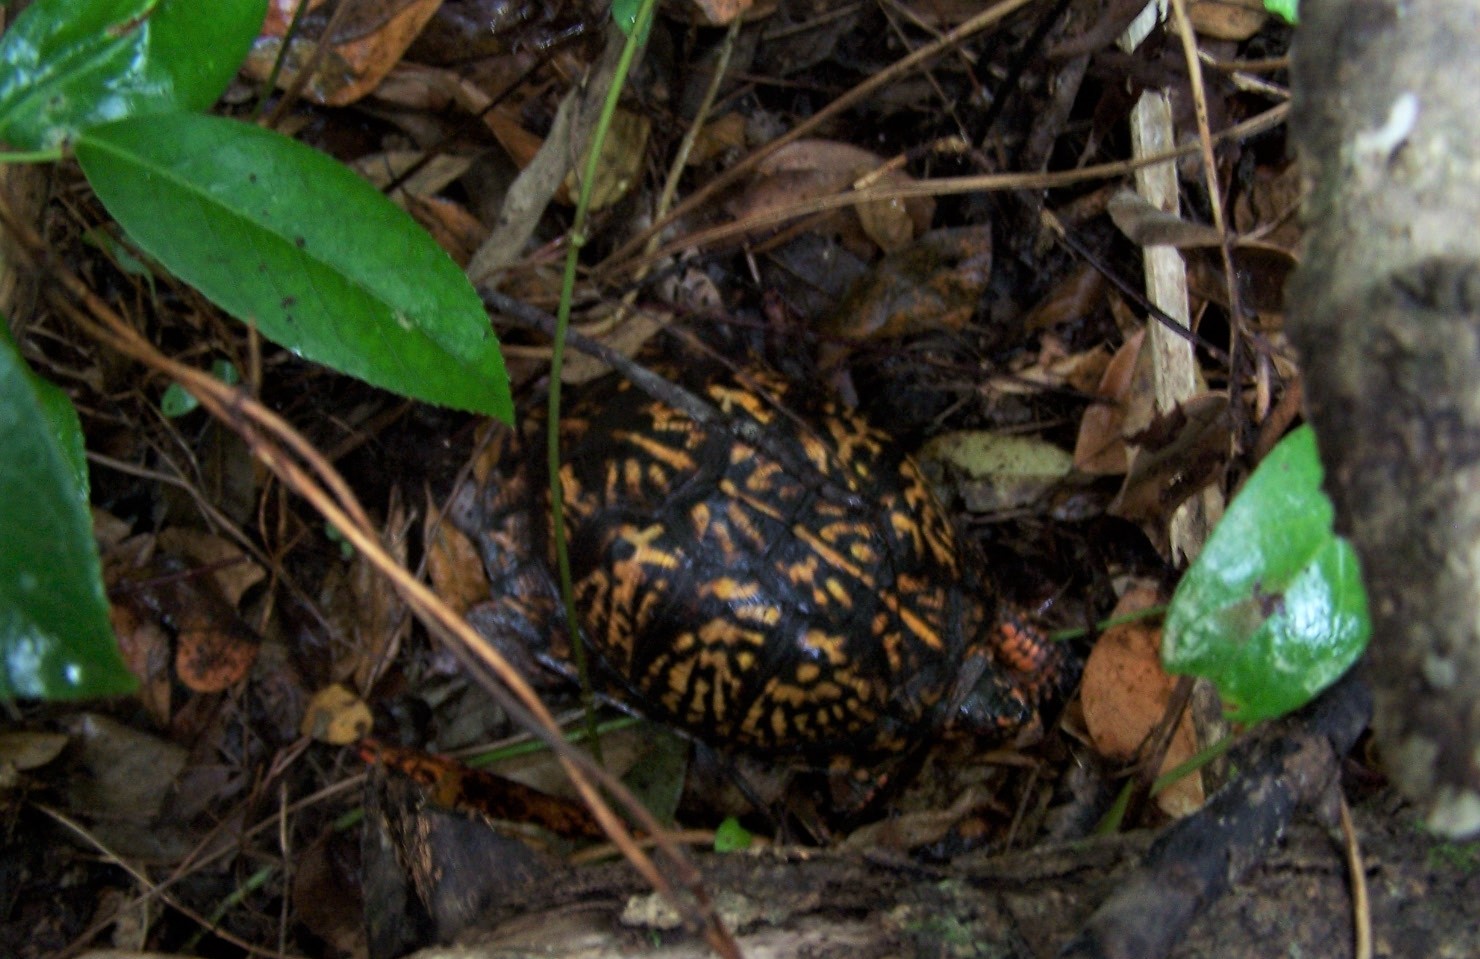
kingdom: Animalia
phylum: Chordata
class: Testudines
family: Emydidae
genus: Terrapene
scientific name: Terrapene carolina
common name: Common box turtle
